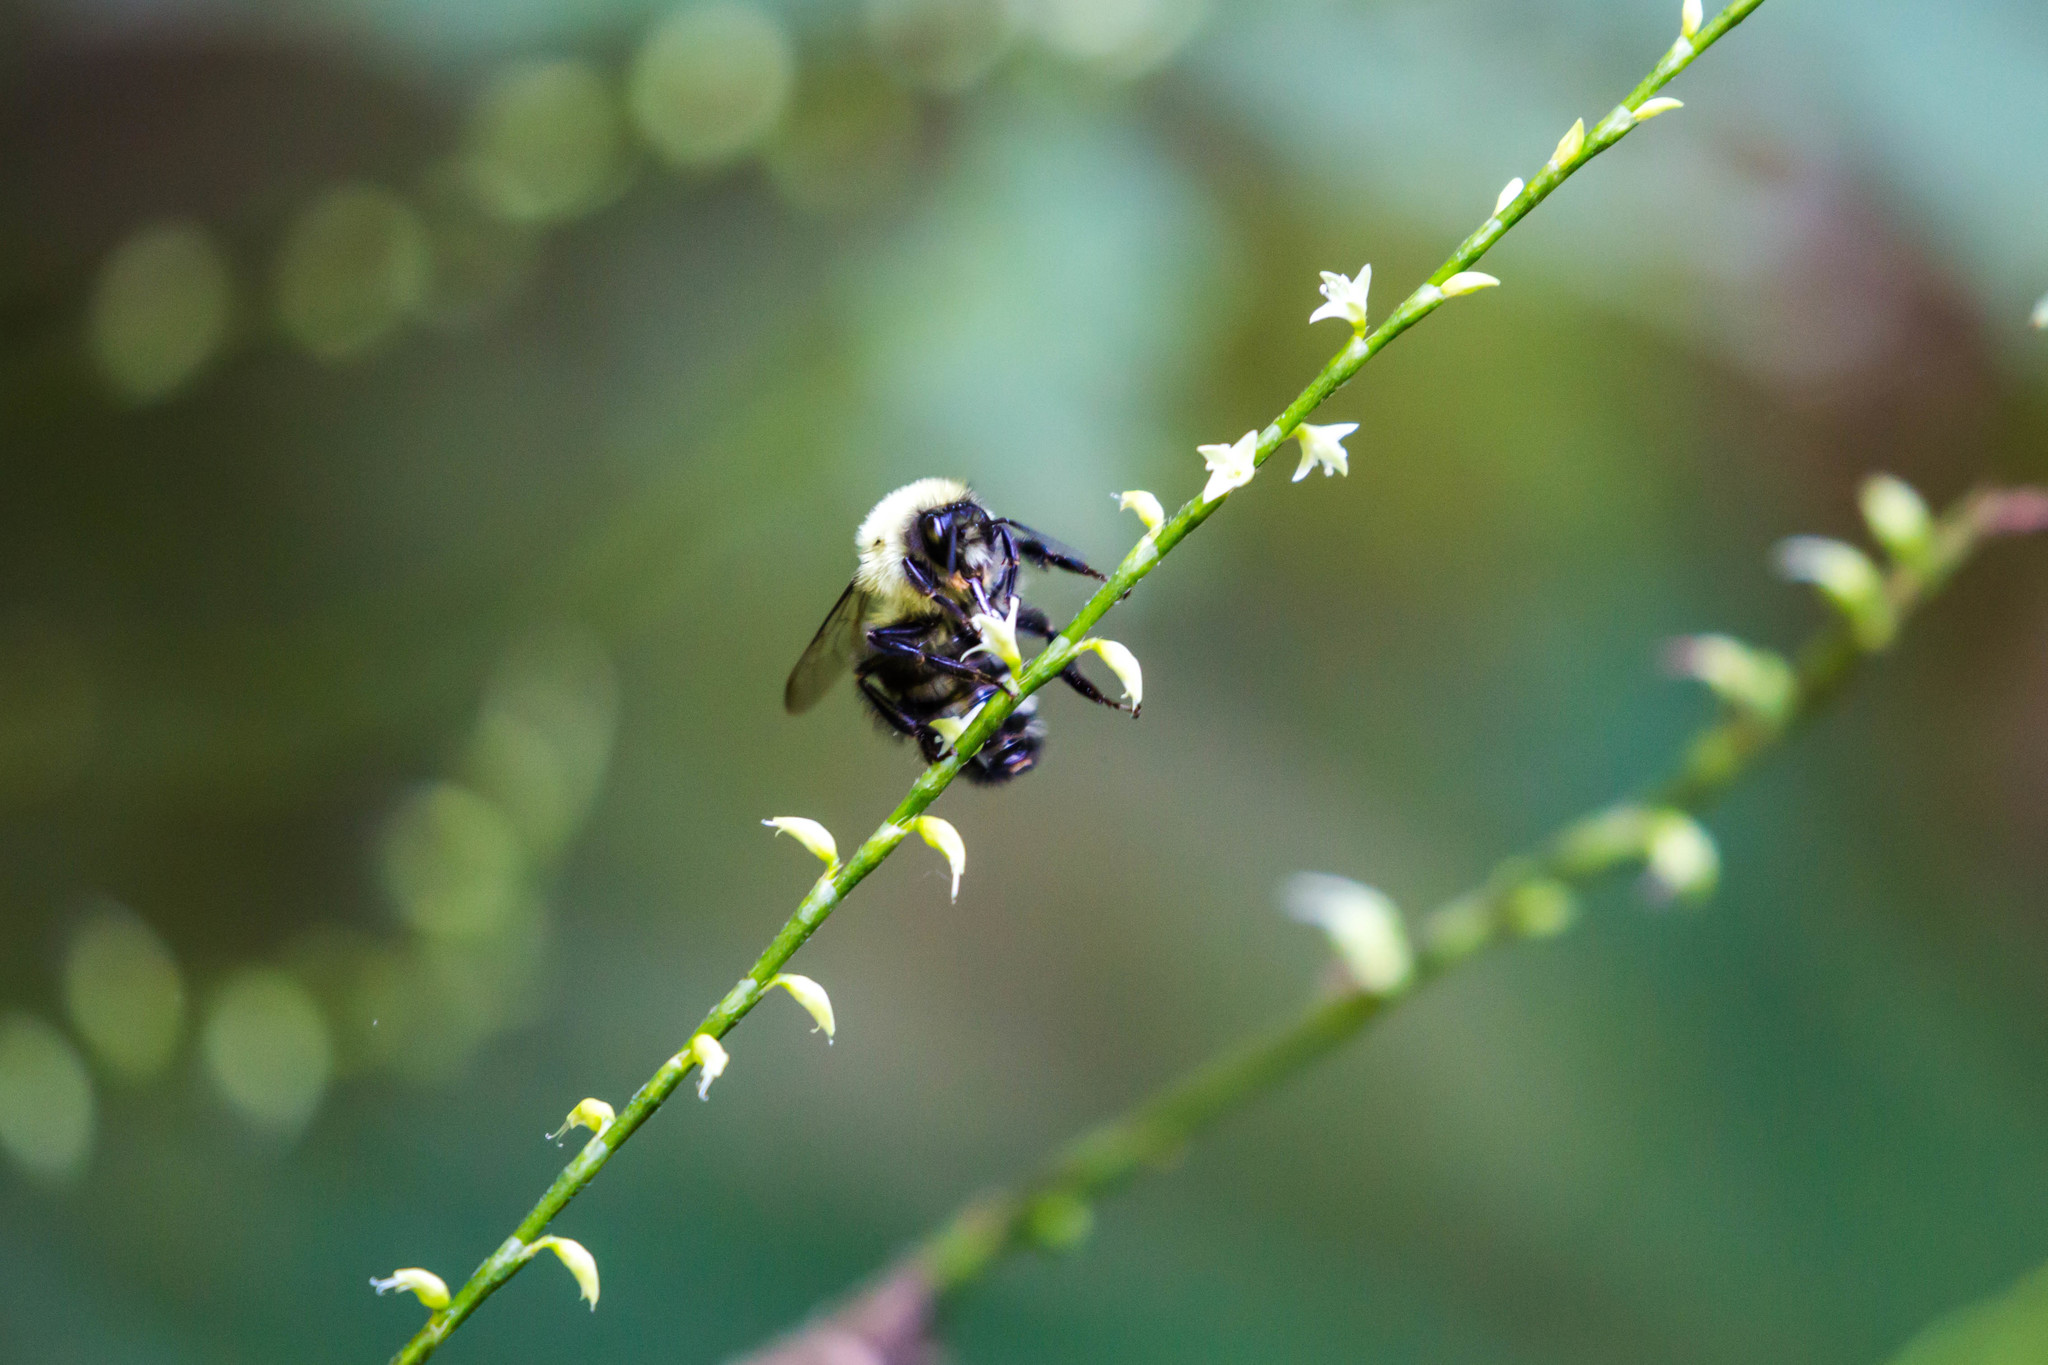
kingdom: Animalia
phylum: Arthropoda
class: Insecta
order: Hymenoptera
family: Apidae
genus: Bombus
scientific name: Bombus impatiens
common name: Common eastern bumble bee
